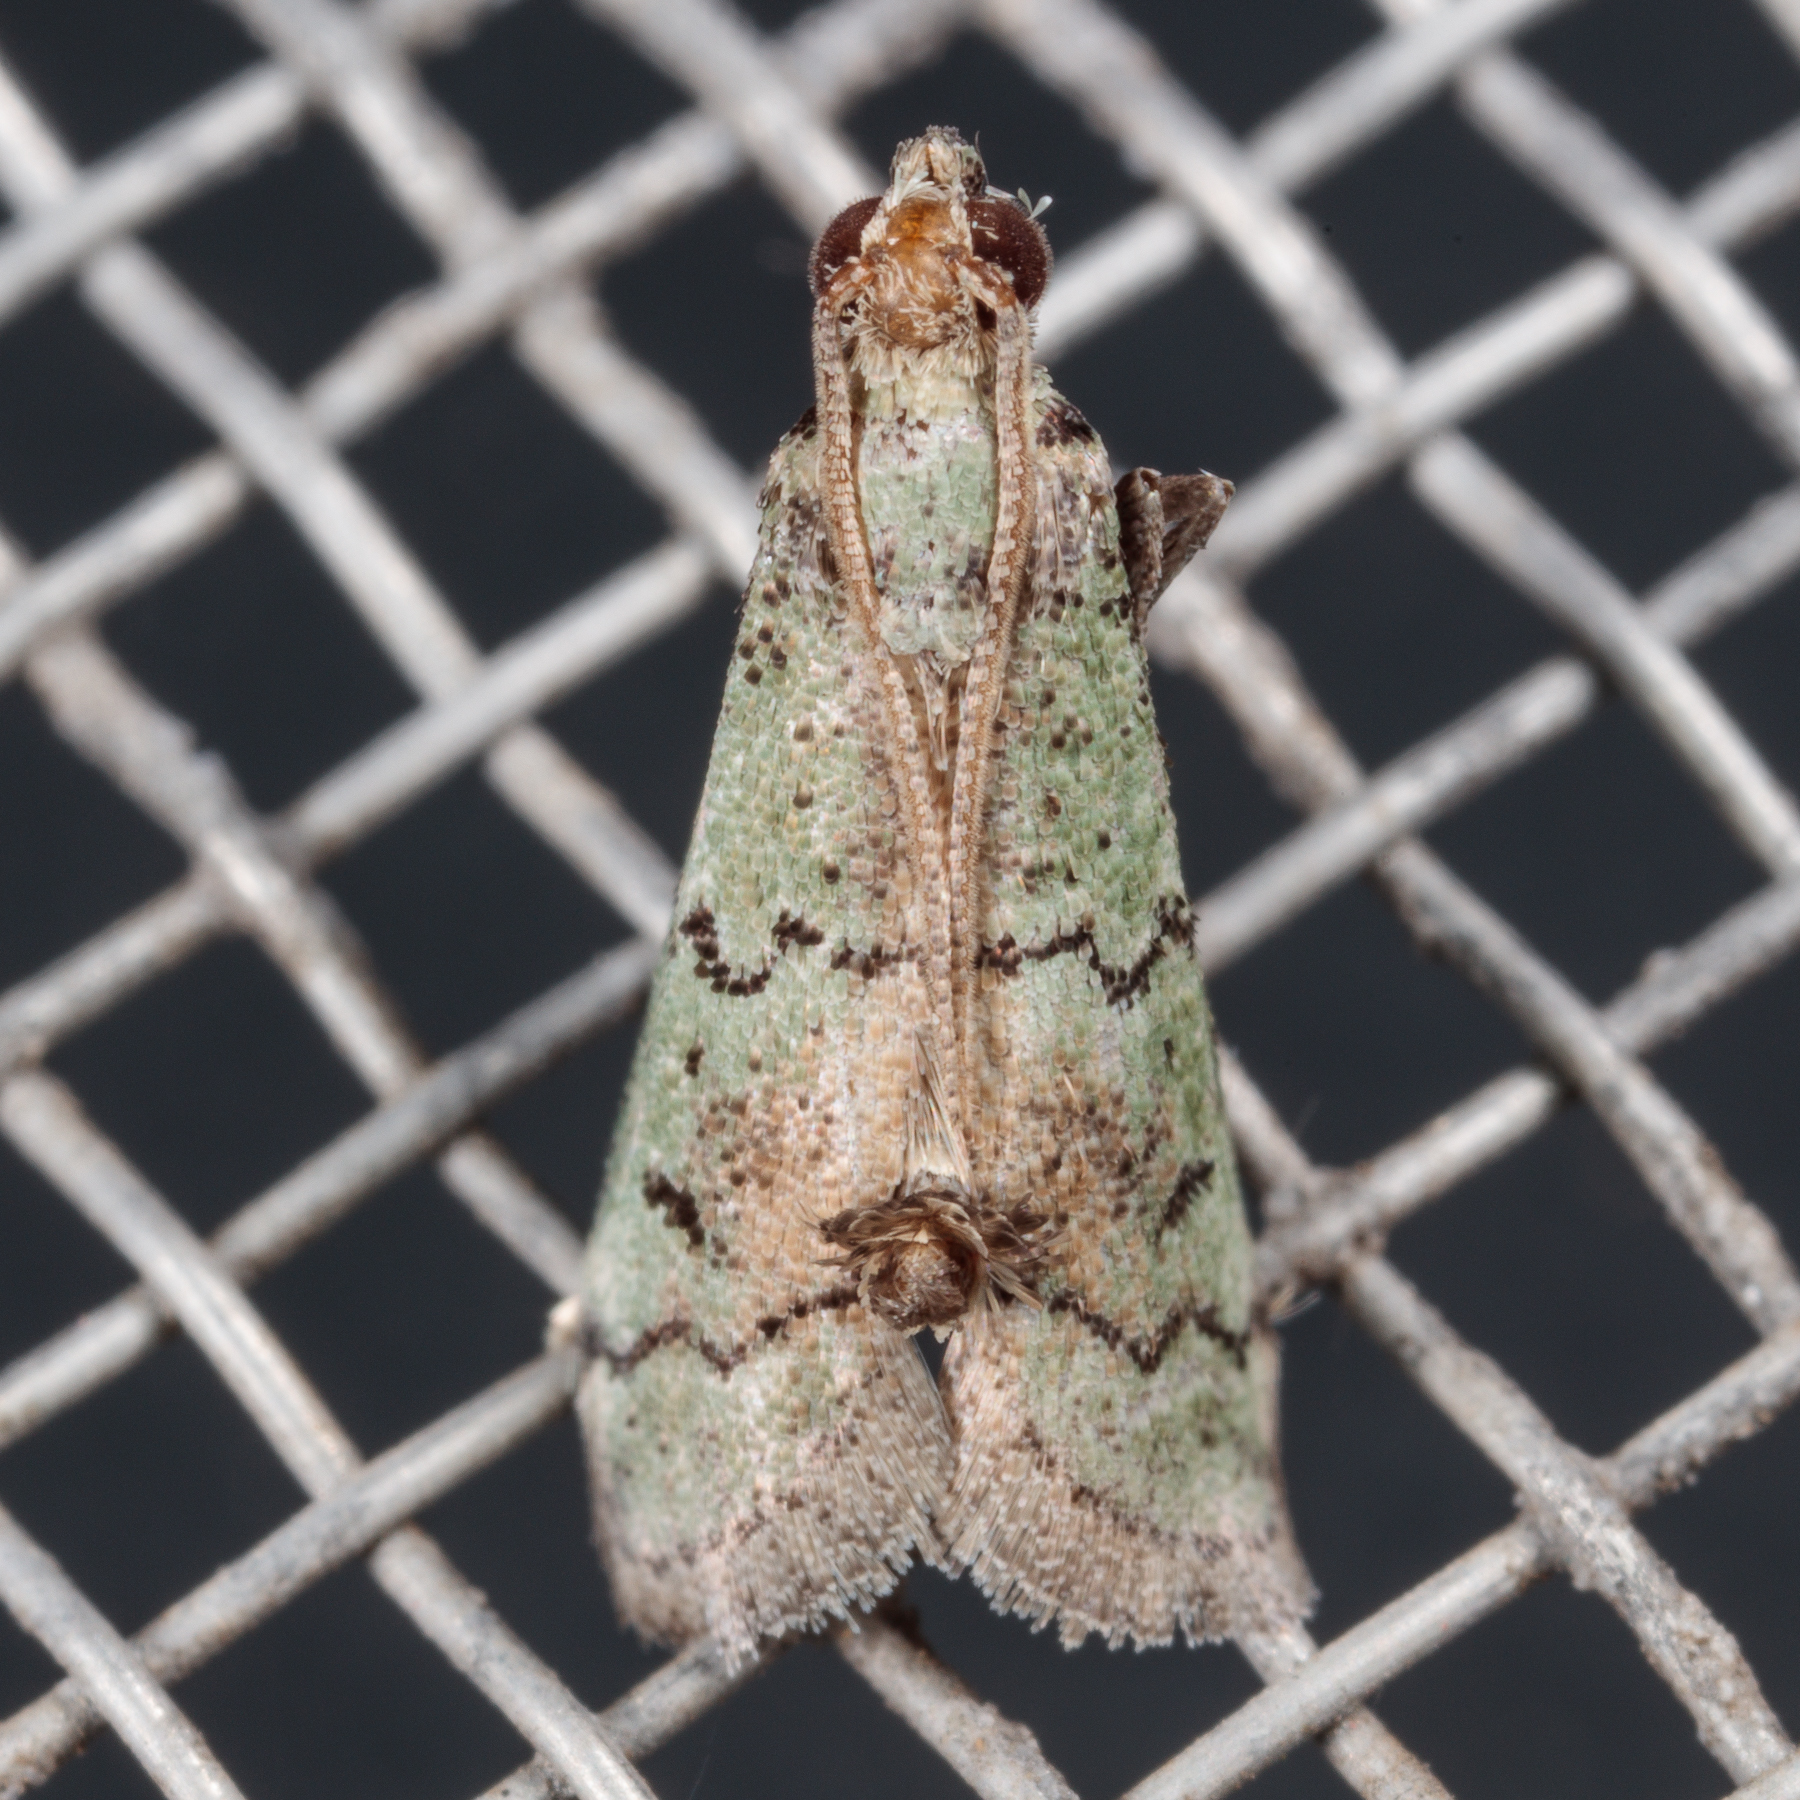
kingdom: Animalia
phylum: Arthropoda
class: Insecta
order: Lepidoptera
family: Pyralidae
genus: Cacotherapia
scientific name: Cacotherapia flexilinealis
